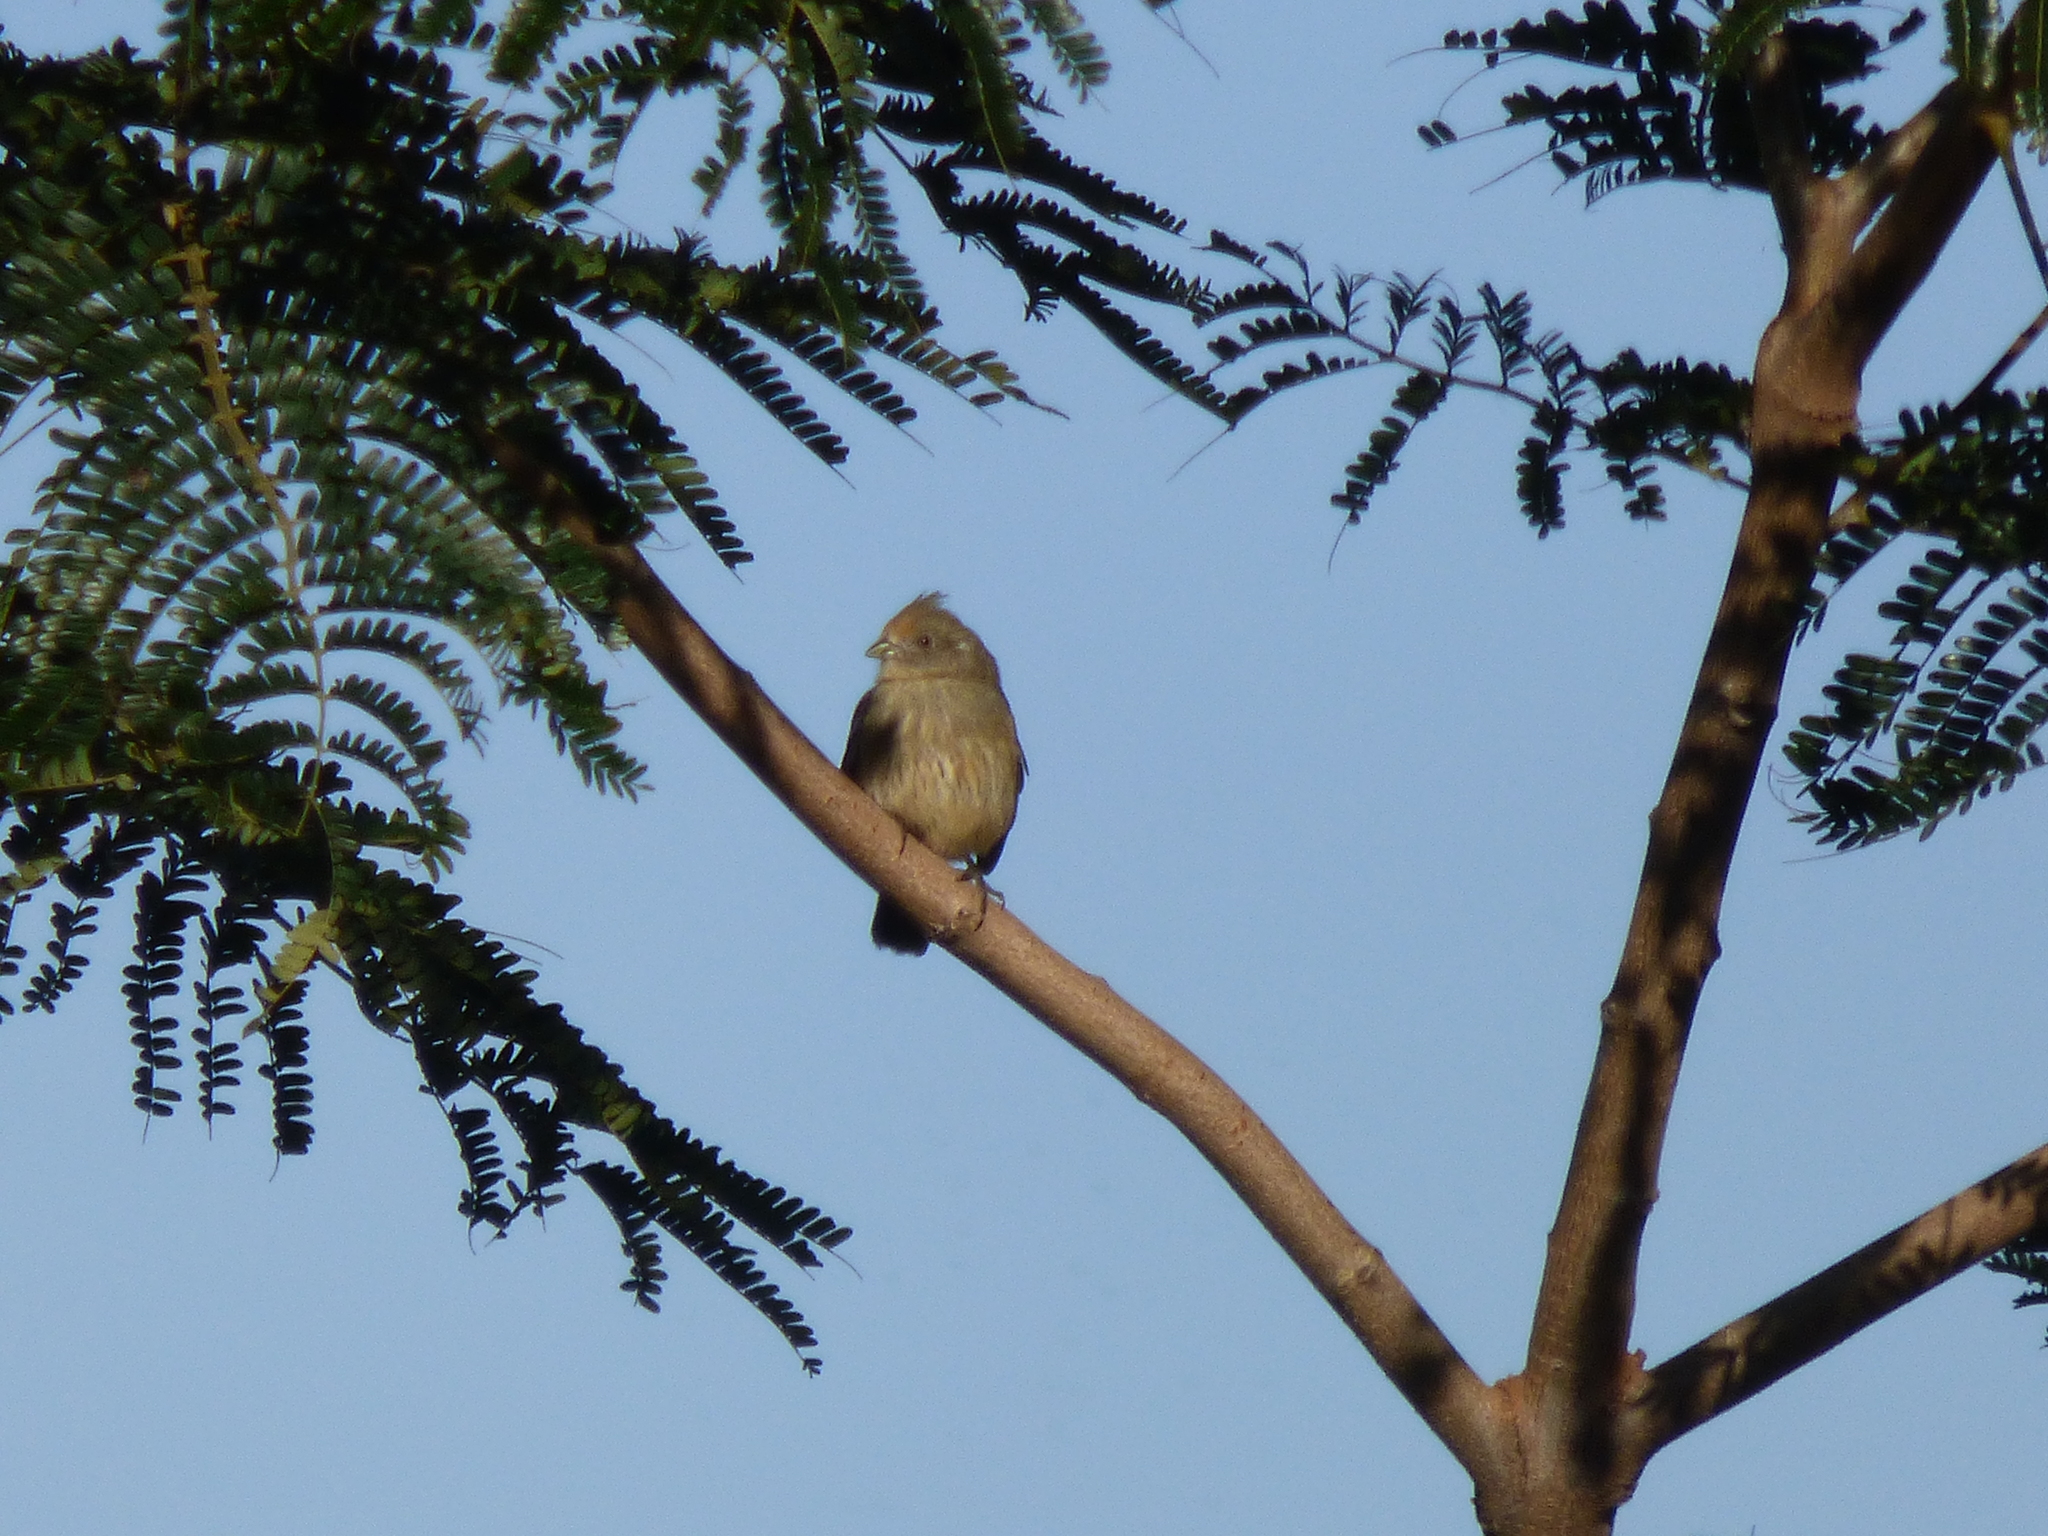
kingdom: Animalia
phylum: Chordata
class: Aves
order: Passeriformes
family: Cotingidae
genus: Phytotoma
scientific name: Phytotoma rutila
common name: White-tipped plantcutter
